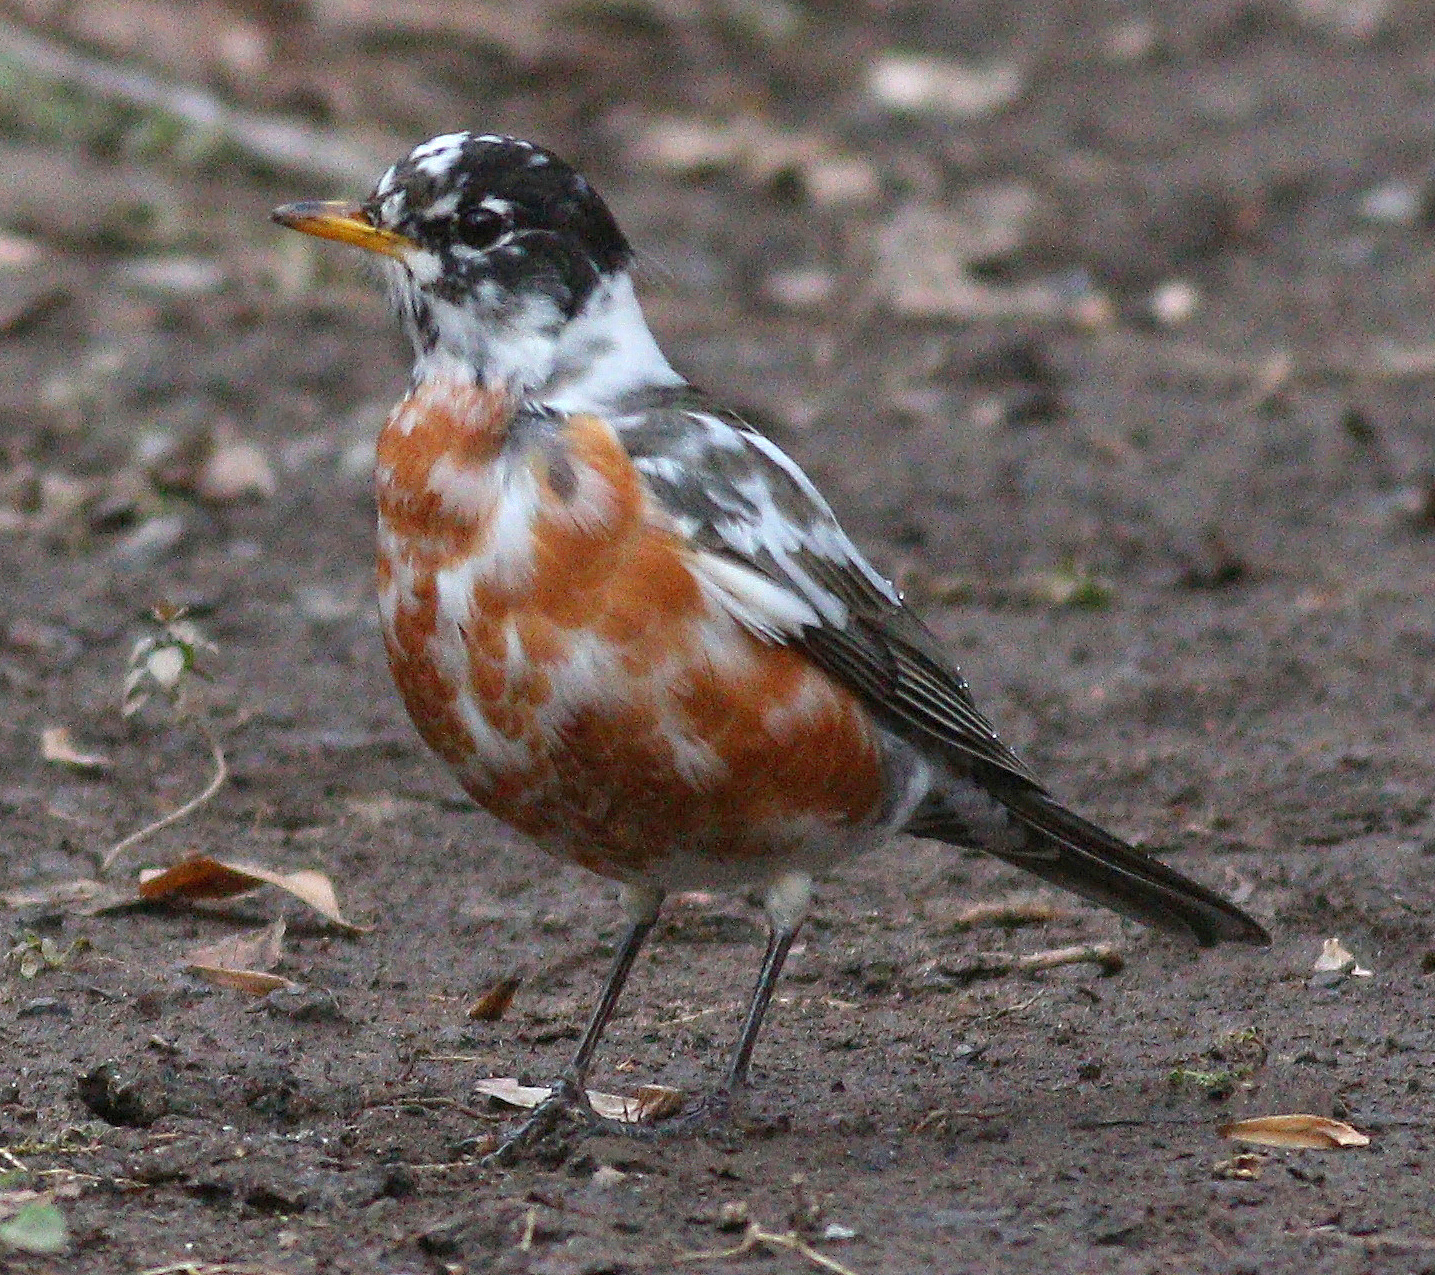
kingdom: Animalia
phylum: Chordata
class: Aves
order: Passeriformes
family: Turdidae
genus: Turdus
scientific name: Turdus migratorius
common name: American robin
